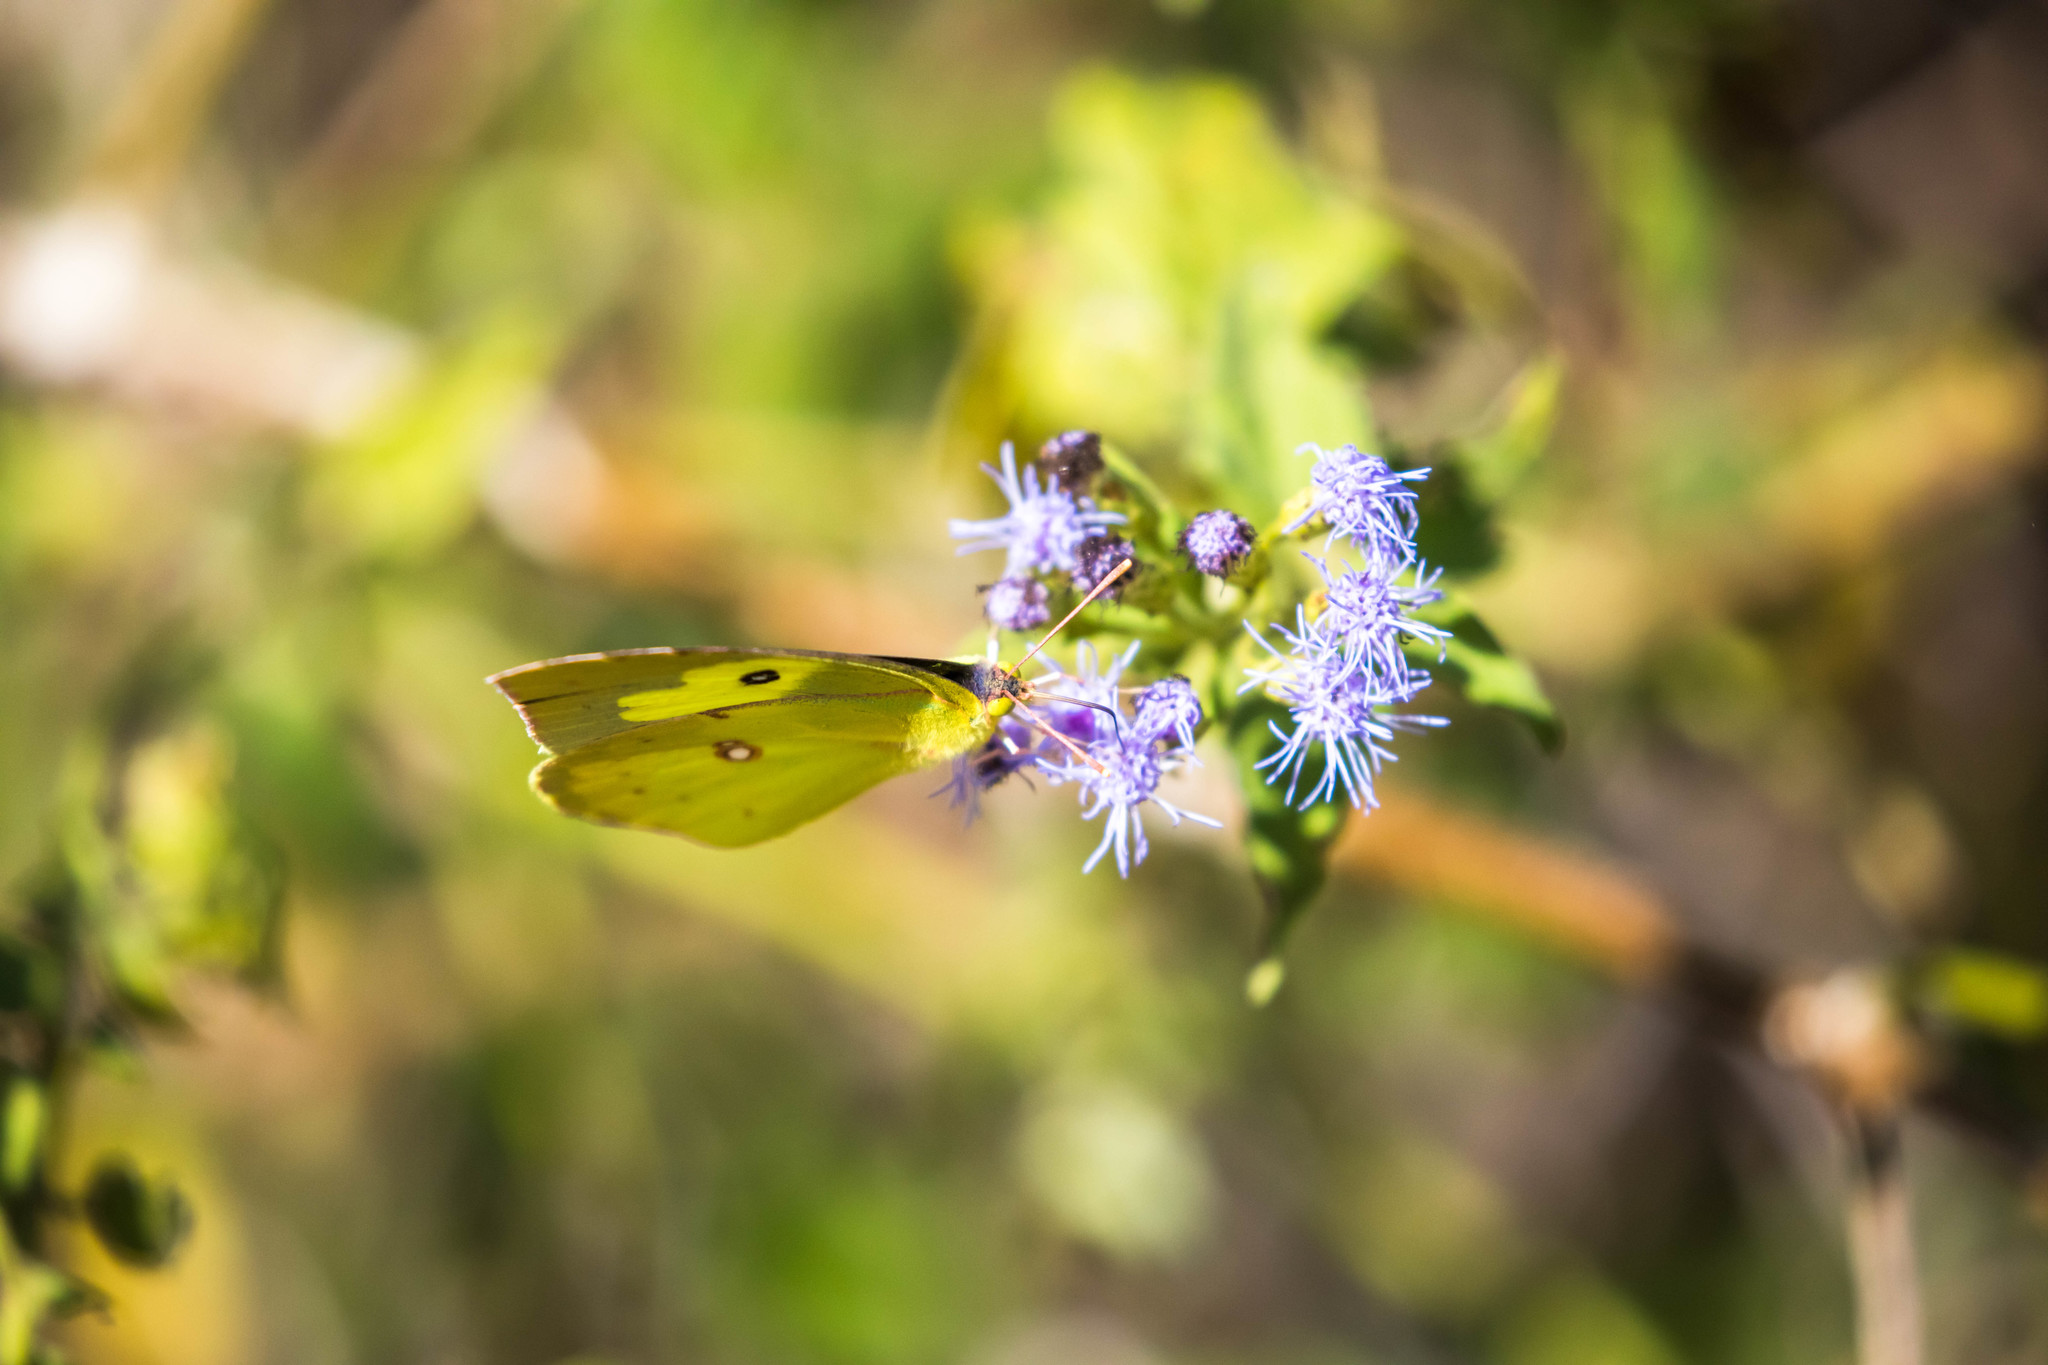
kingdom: Animalia
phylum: Arthropoda
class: Insecta
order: Lepidoptera
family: Pieridae
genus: Zerene
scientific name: Zerene cesonia
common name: Southern dogface
